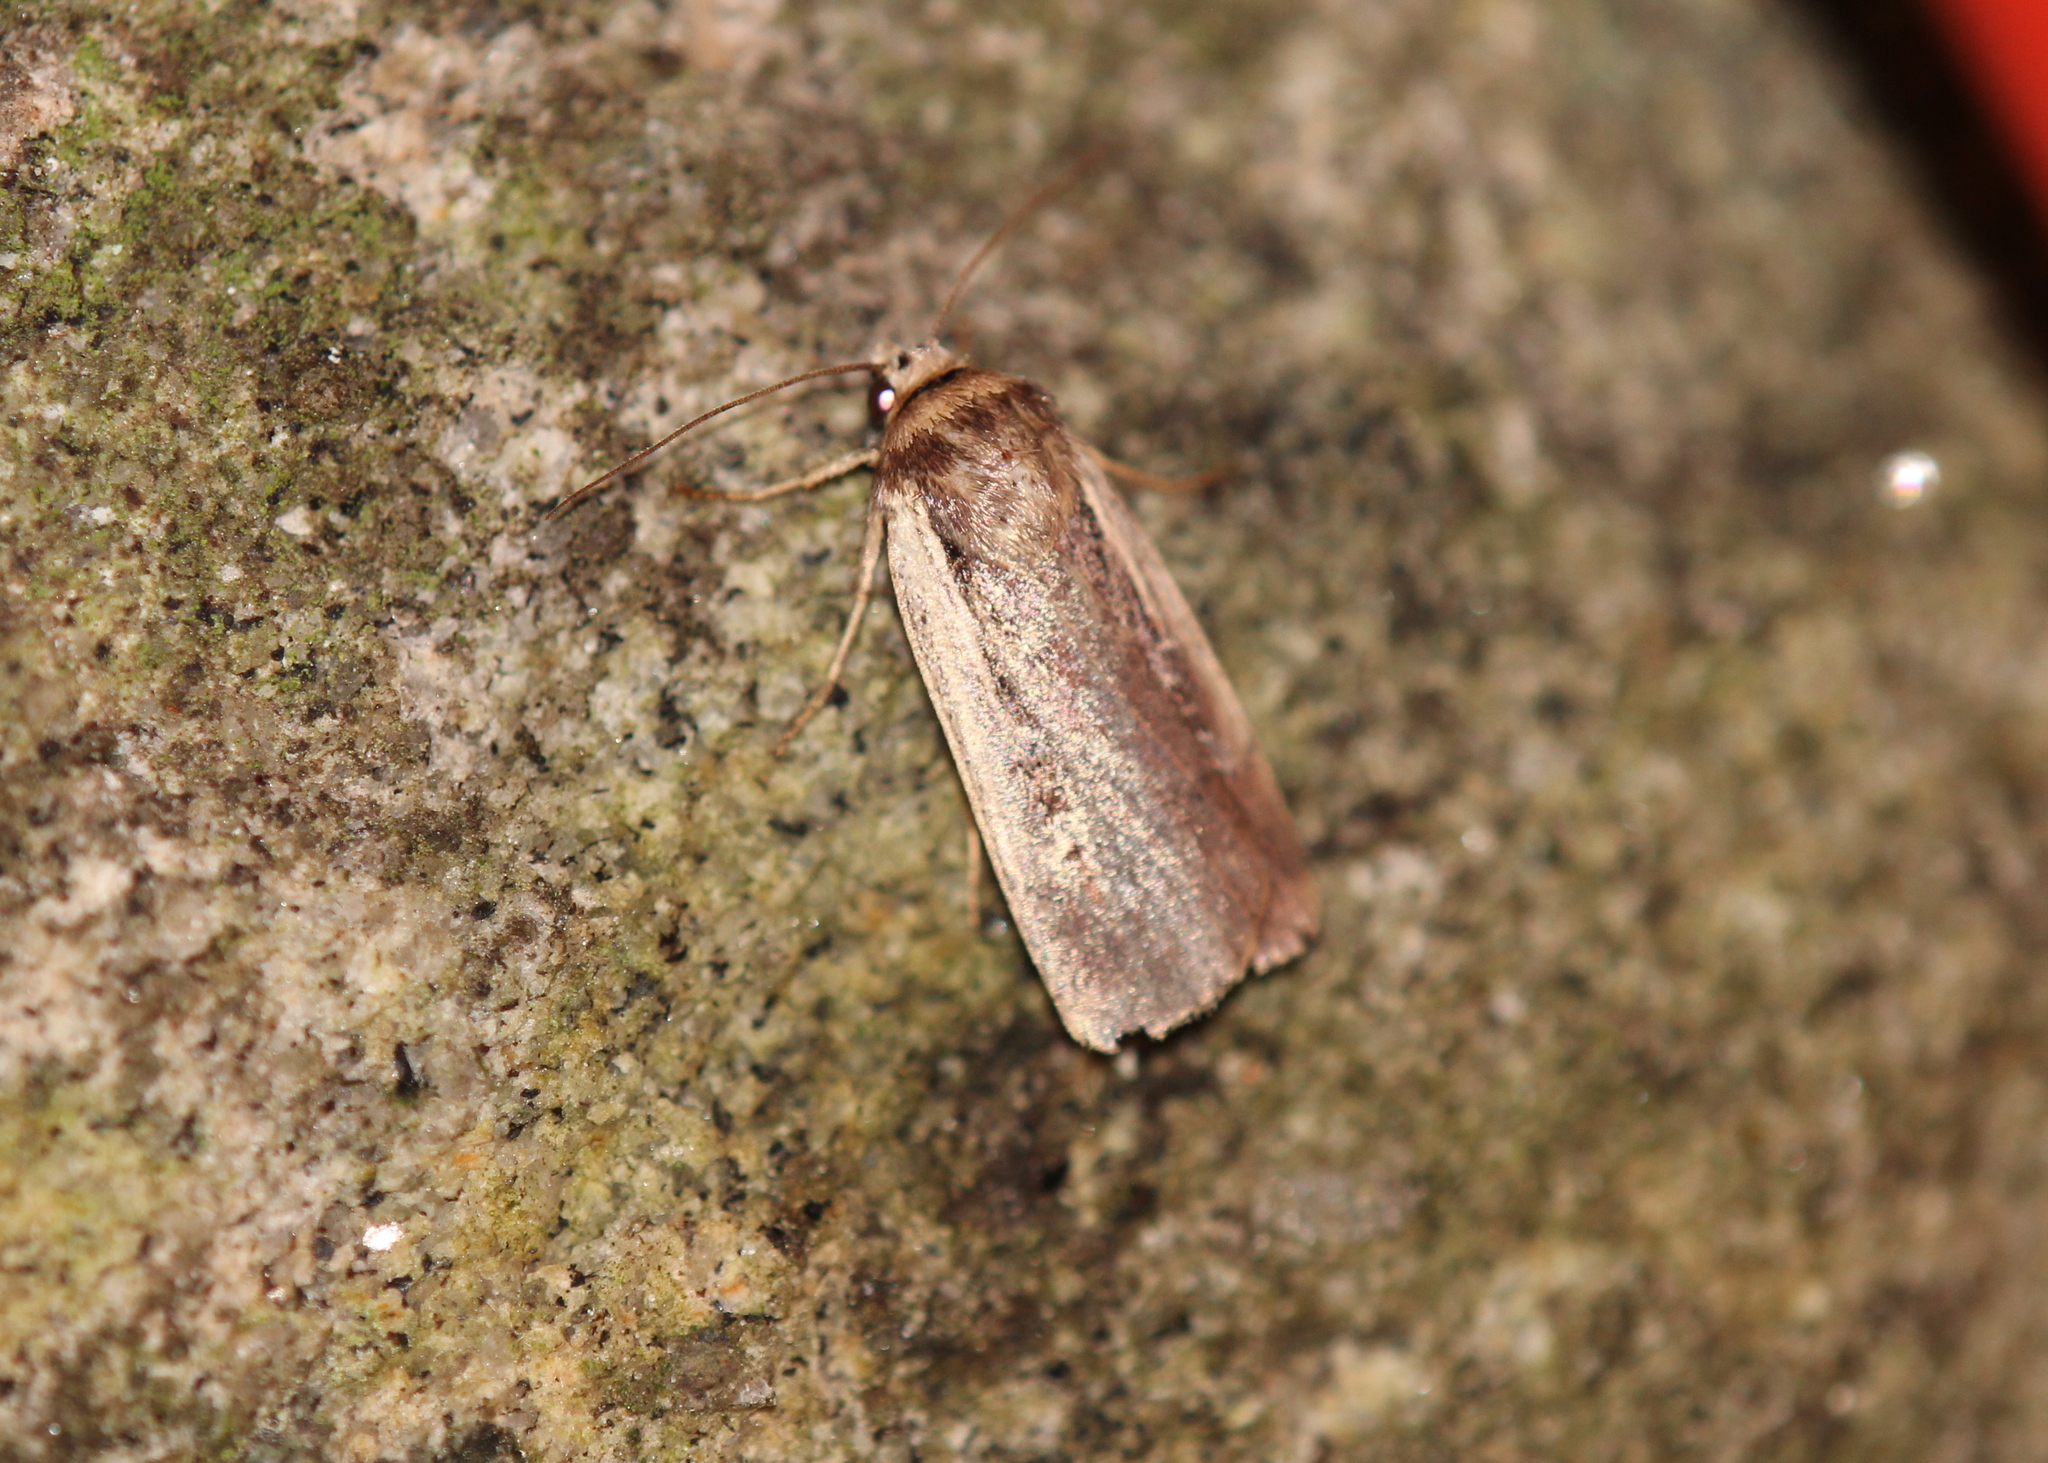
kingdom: Animalia
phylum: Arthropoda
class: Insecta
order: Lepidoptera
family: Noctuidae
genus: Ochropleura
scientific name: Ochropleura implecta
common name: Flame-shouldered dart
